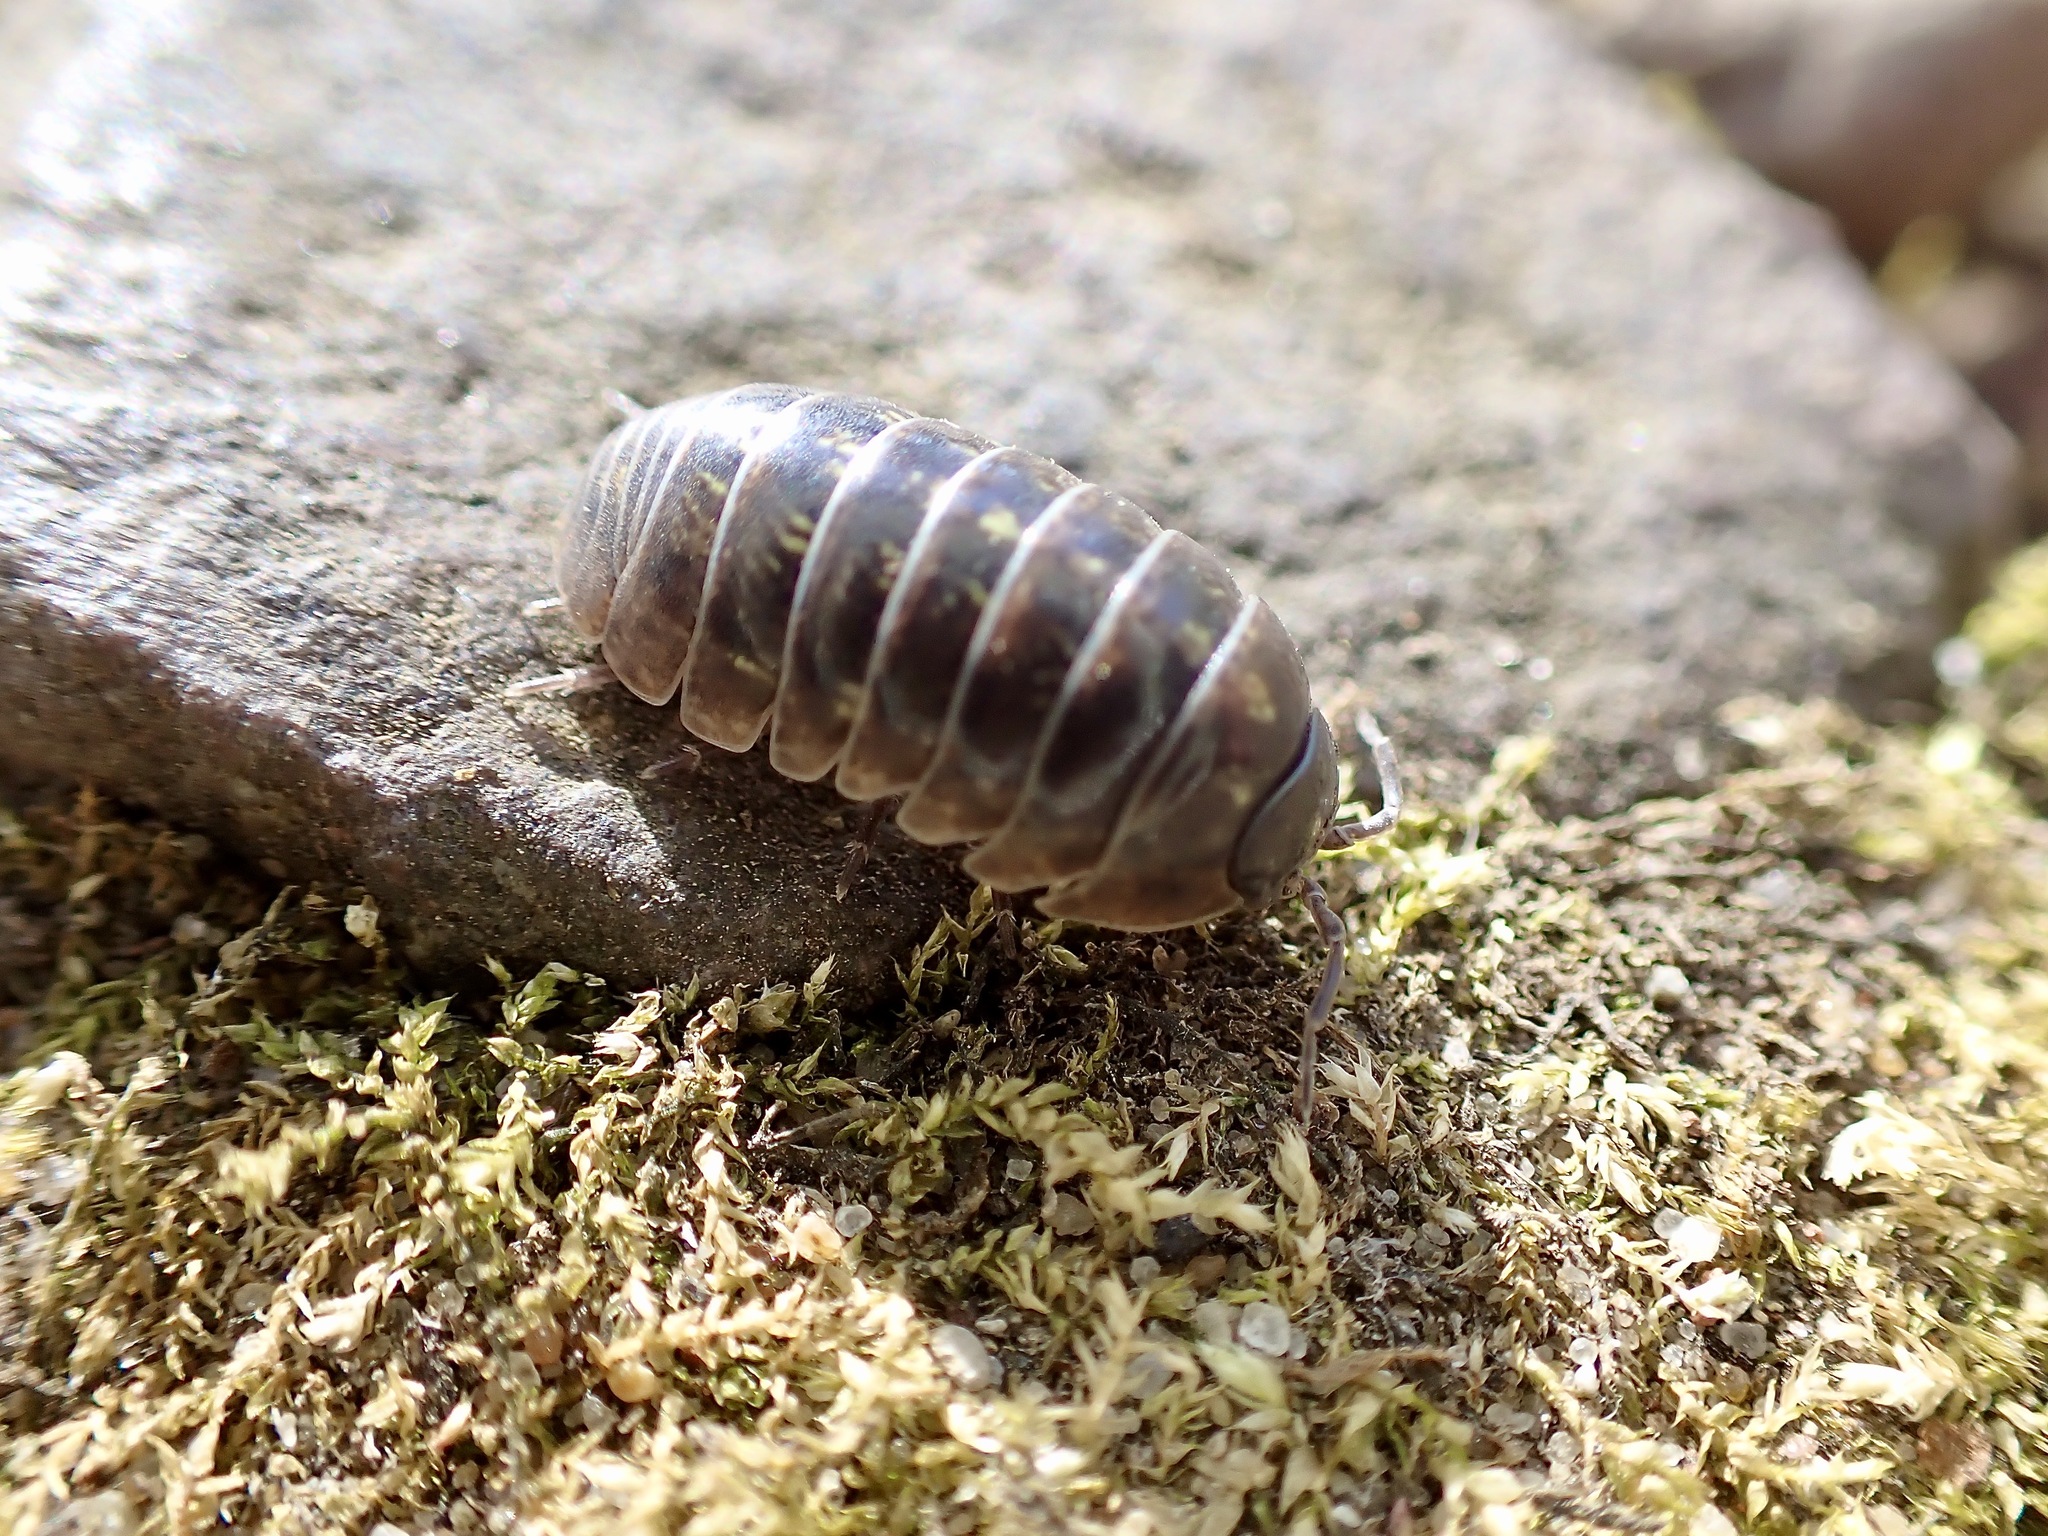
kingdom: Animalia
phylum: Arthropoda
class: Malacostraca
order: Isopoda
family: Armadillidiidae
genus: Armadillidium
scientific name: Armadillidium vulgare
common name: Common pill woodlouse
